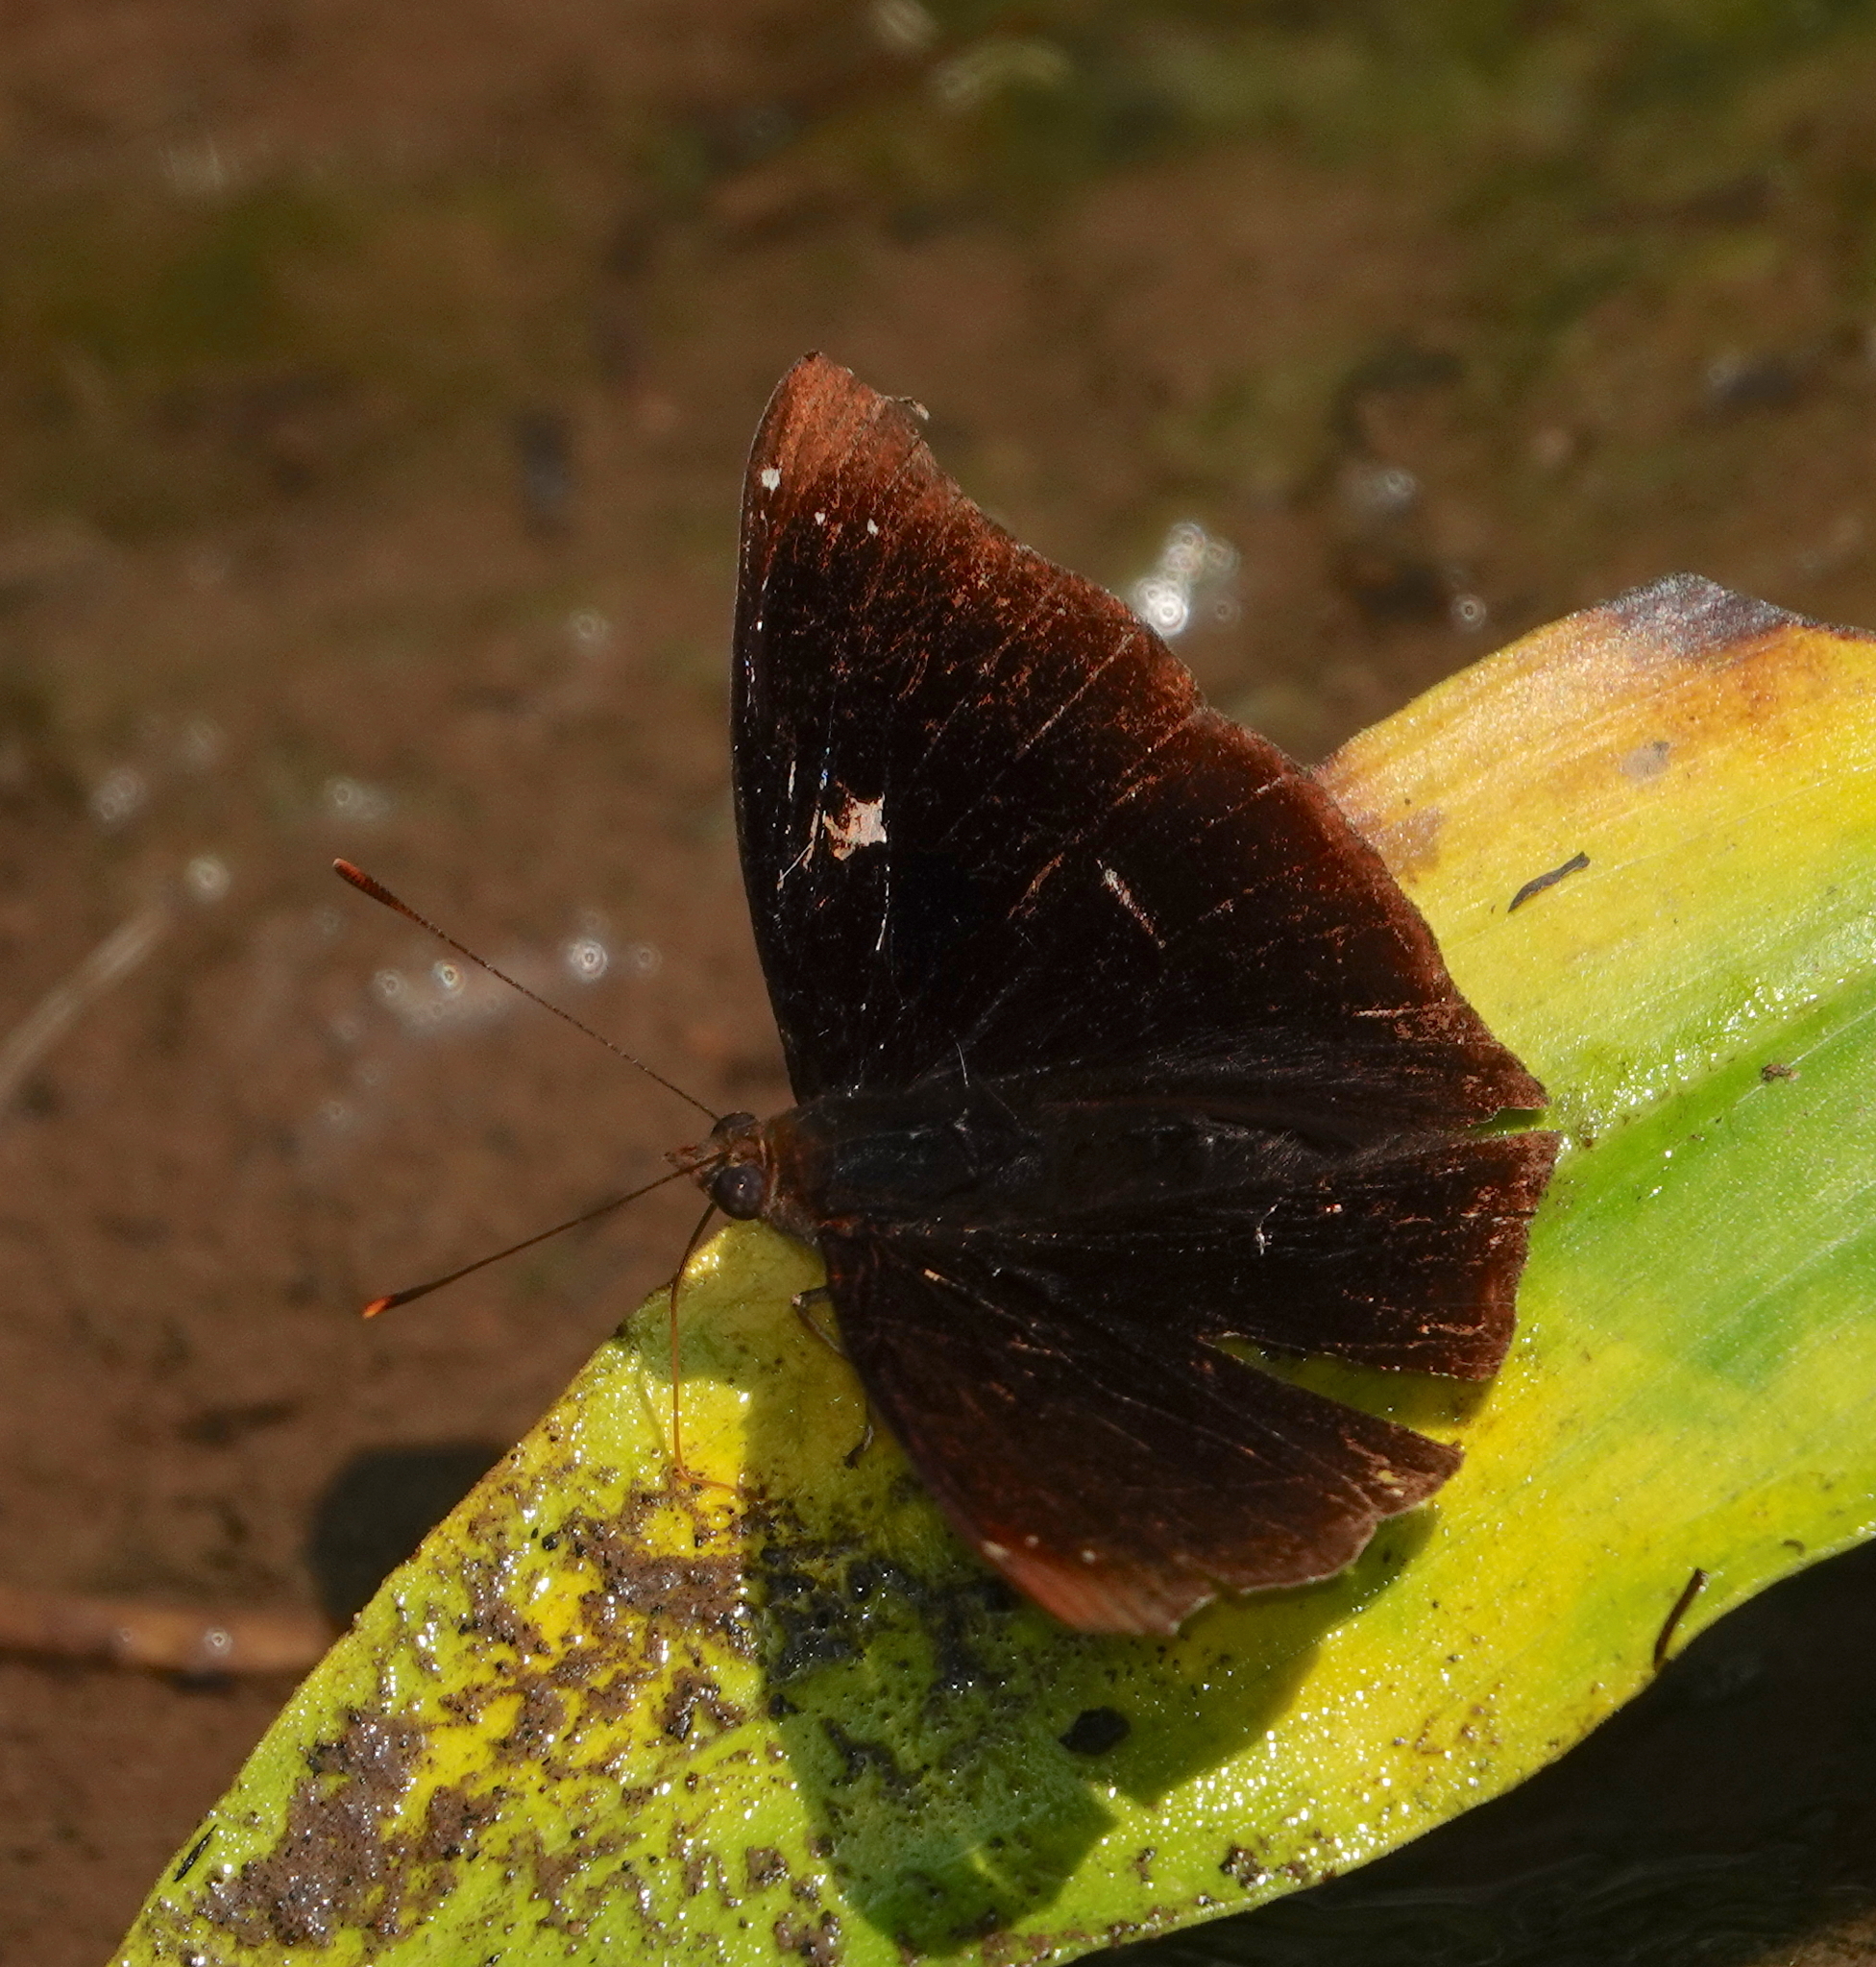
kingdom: Animalia
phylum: Arthropoda
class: Insecta
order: Lepidoptera
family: Nymphalidae
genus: Apatura
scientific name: Apatura nakula
